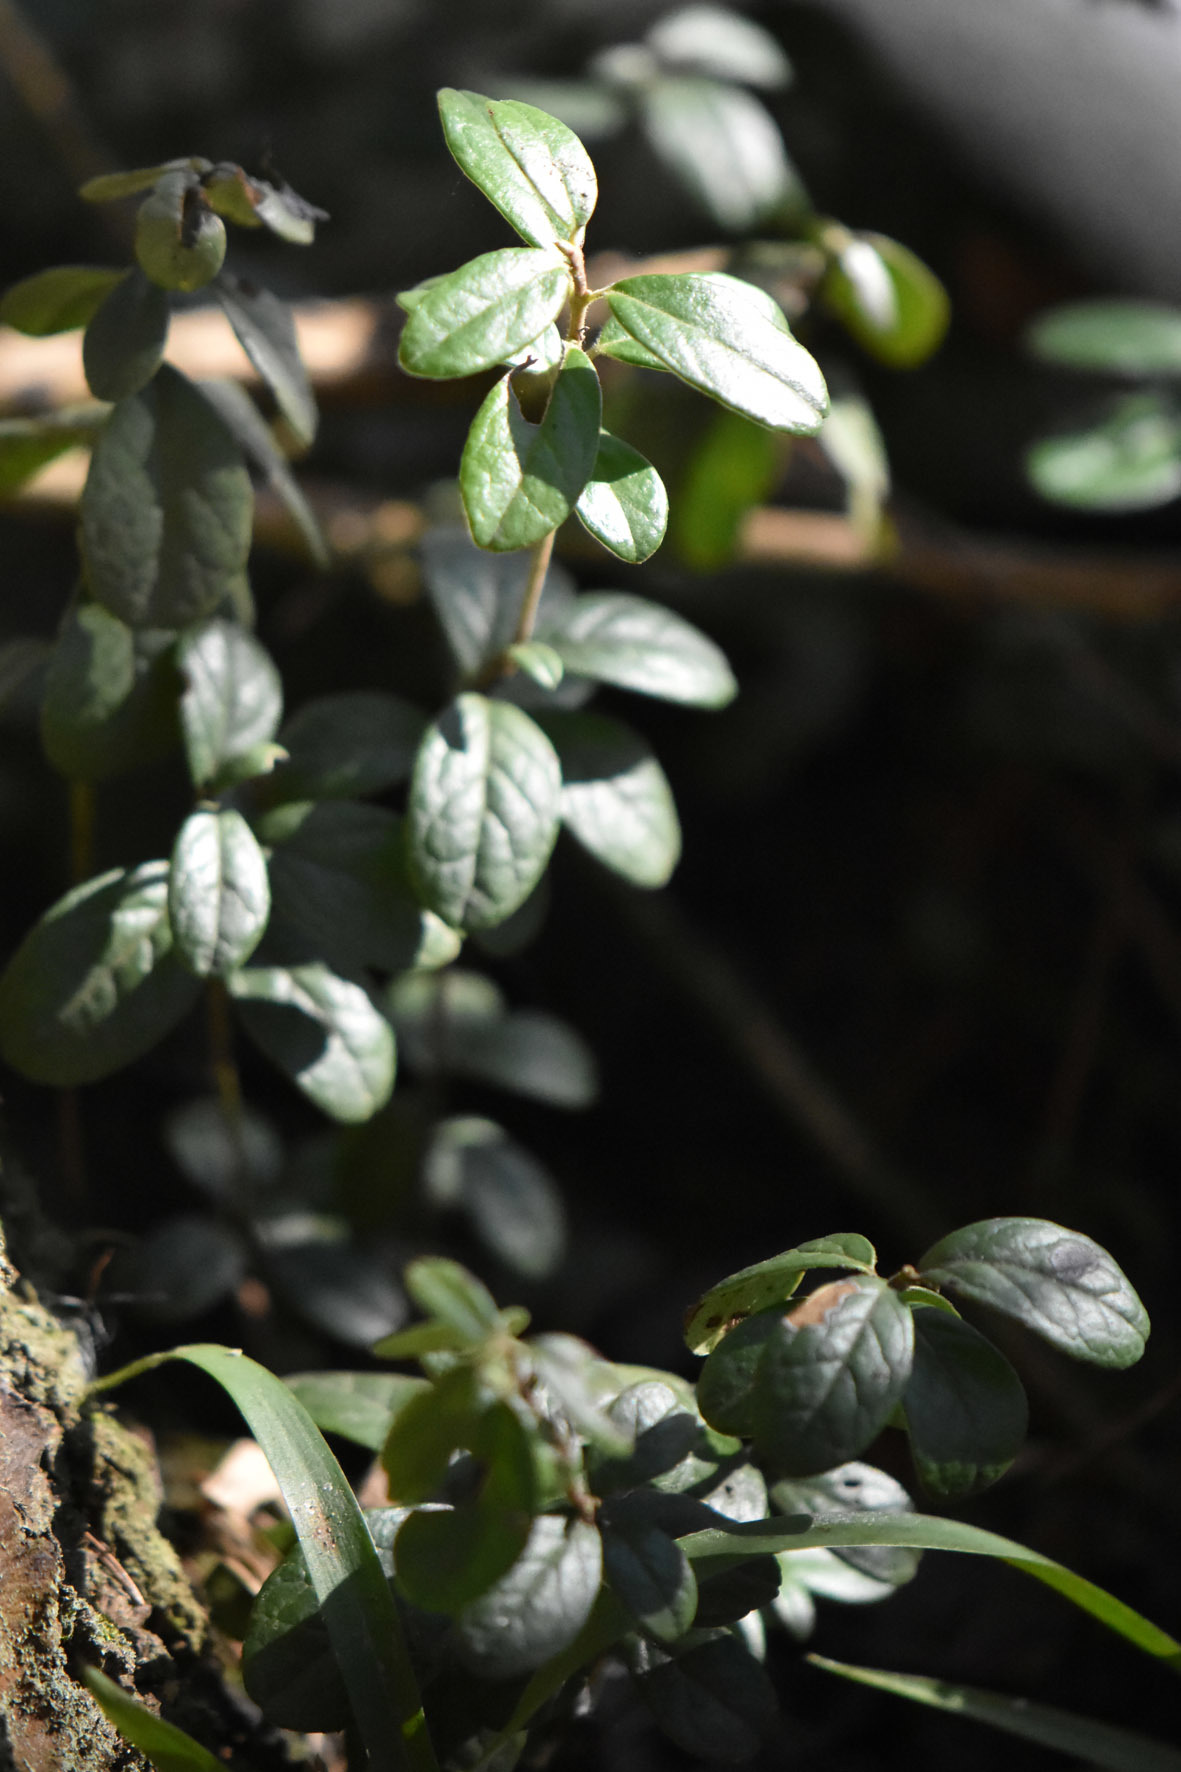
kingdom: Plantae
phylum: Tracheophyta
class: Magnoliopsida
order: Ericales
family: Ericaceae
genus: Vaccinium
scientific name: Vaccinium vitis-idaea
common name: Cowberry
